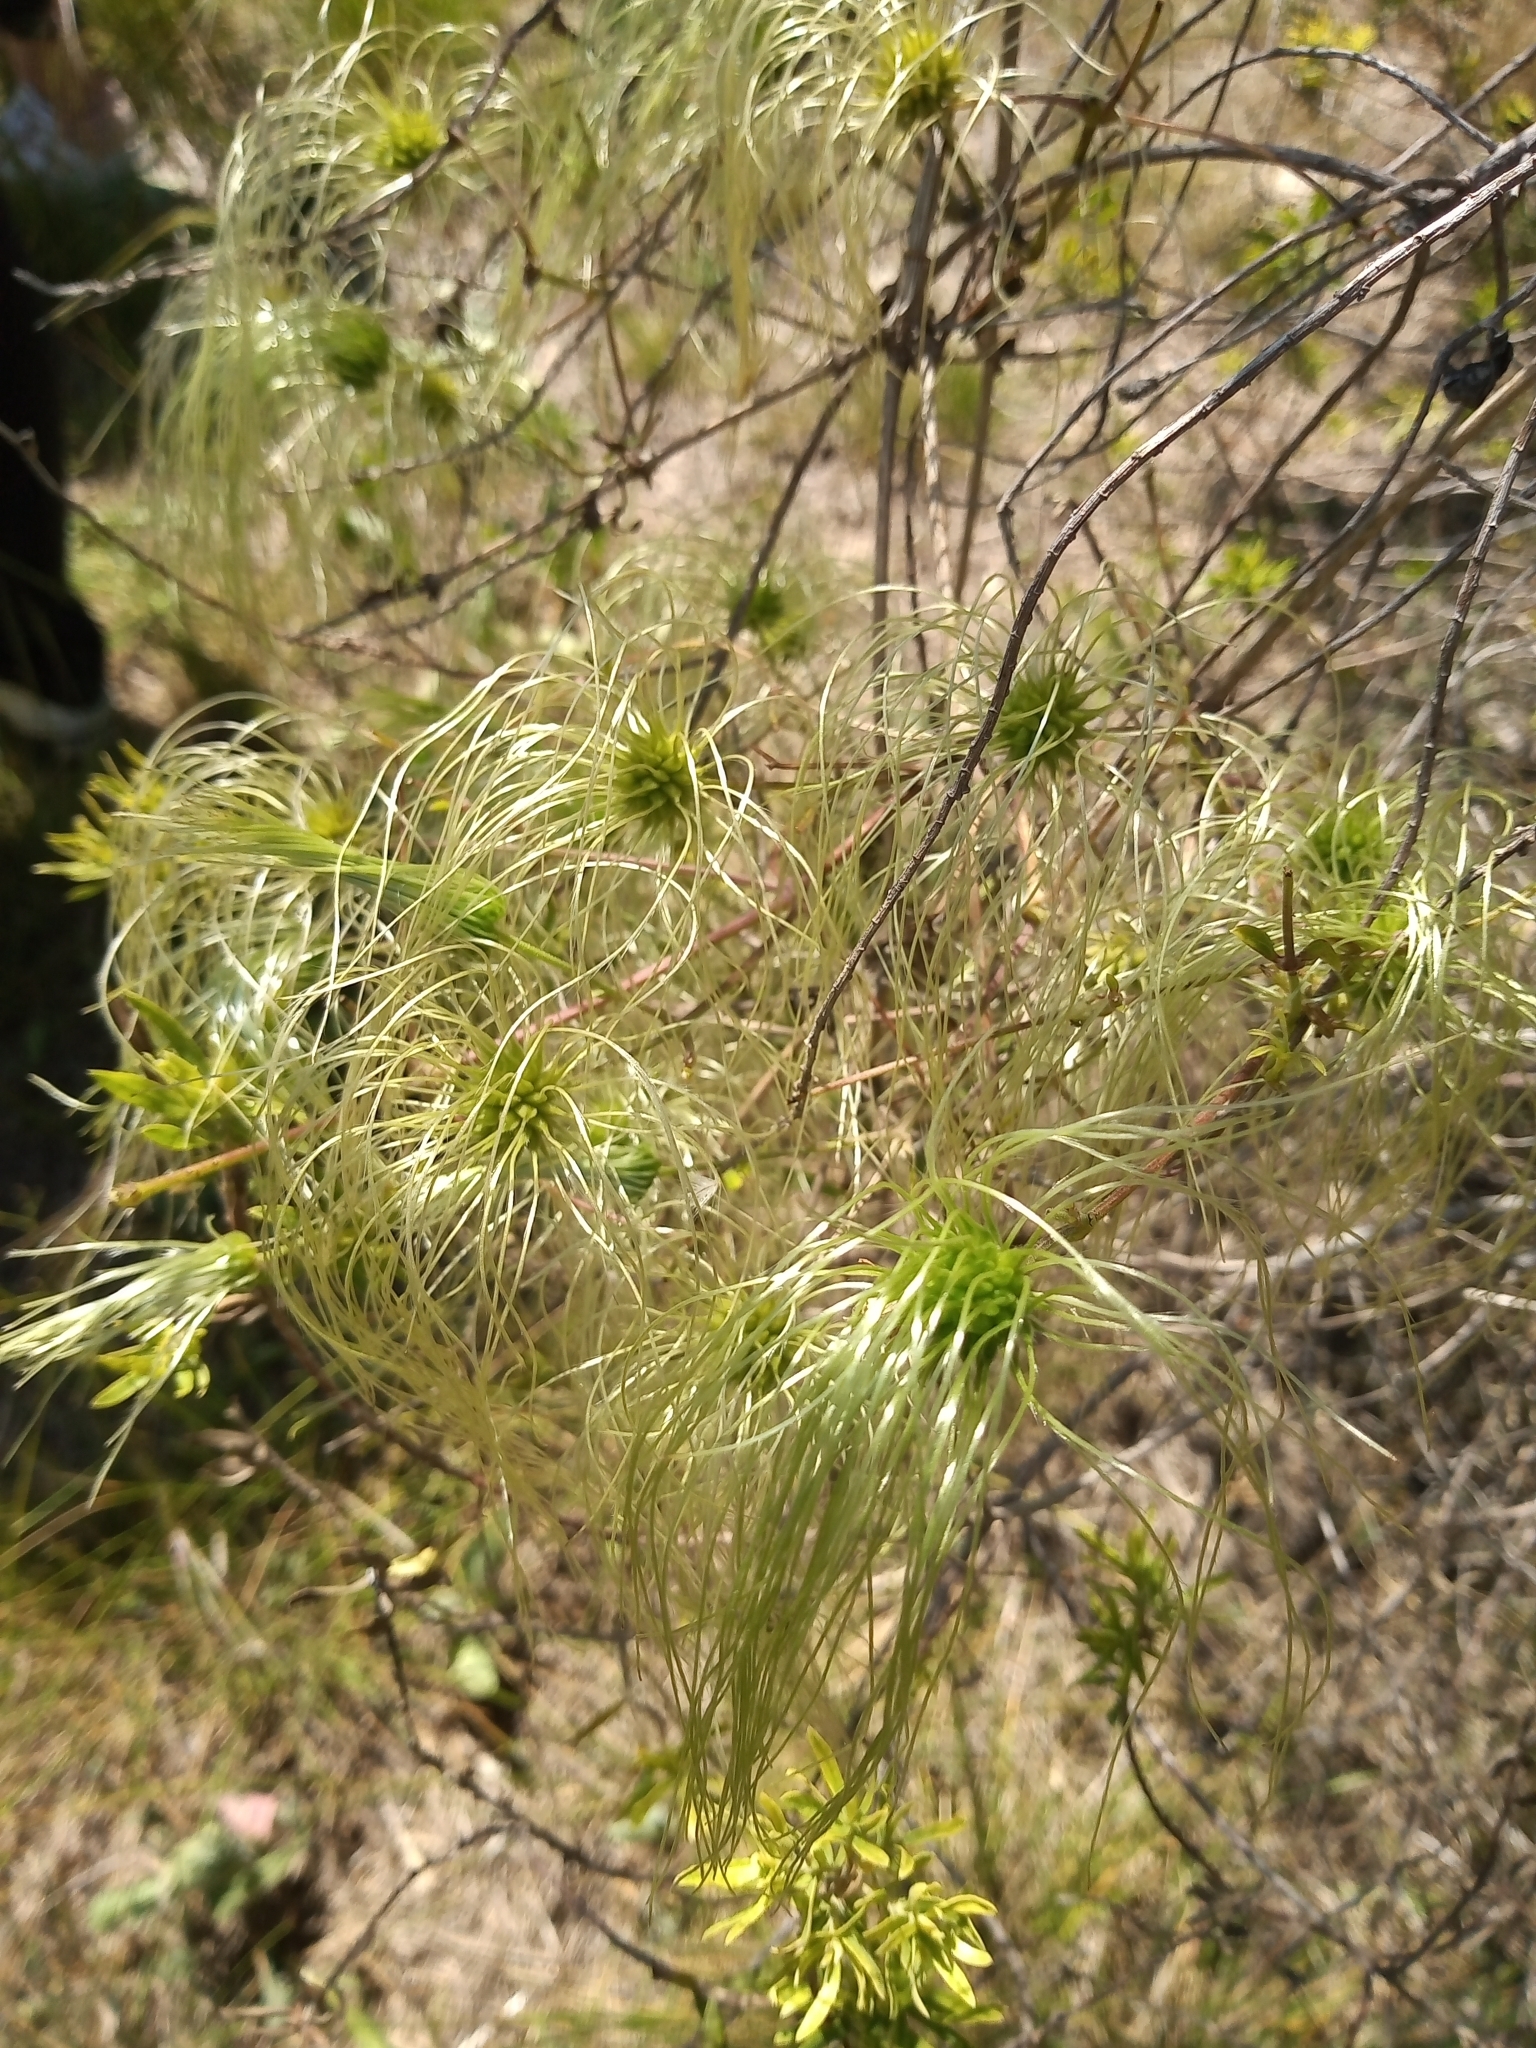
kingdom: Plantae
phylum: Tracheophyta
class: Magnoliopsida
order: Ranunculales
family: Ranunculaceae
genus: Clematis
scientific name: Clematis montevidensis
